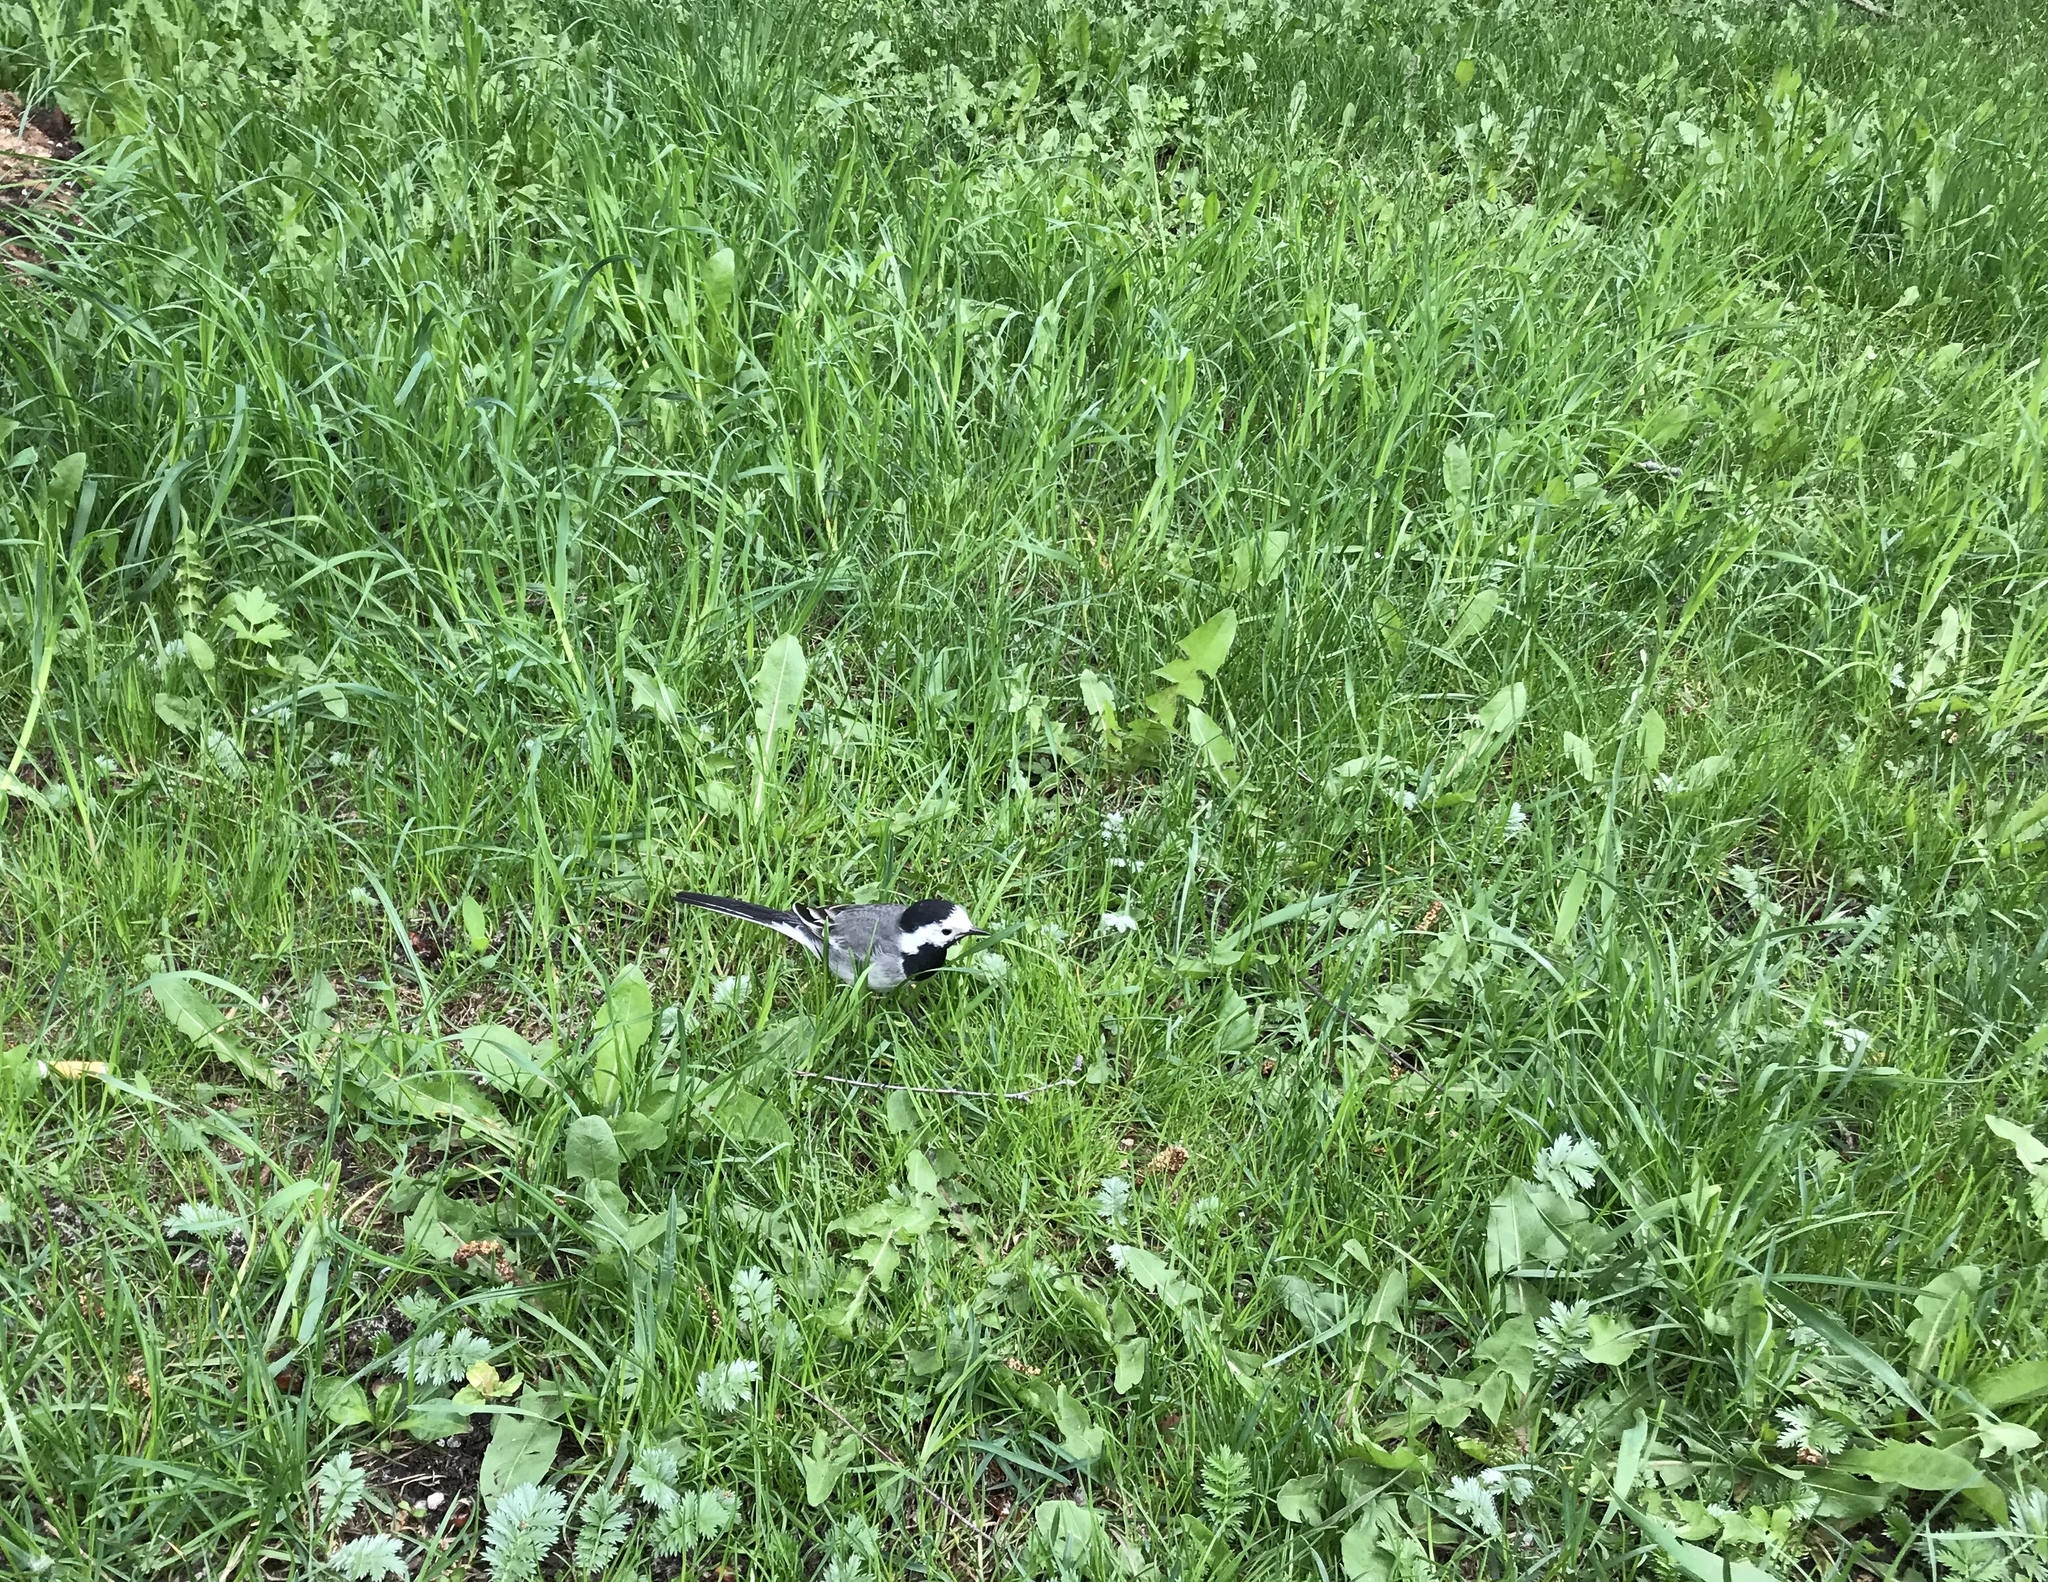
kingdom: Animalia
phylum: Chordata
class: Aves
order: Passeriformes
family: Motacillidae
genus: Motacilla
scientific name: Motacilla alba
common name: White wagtail
